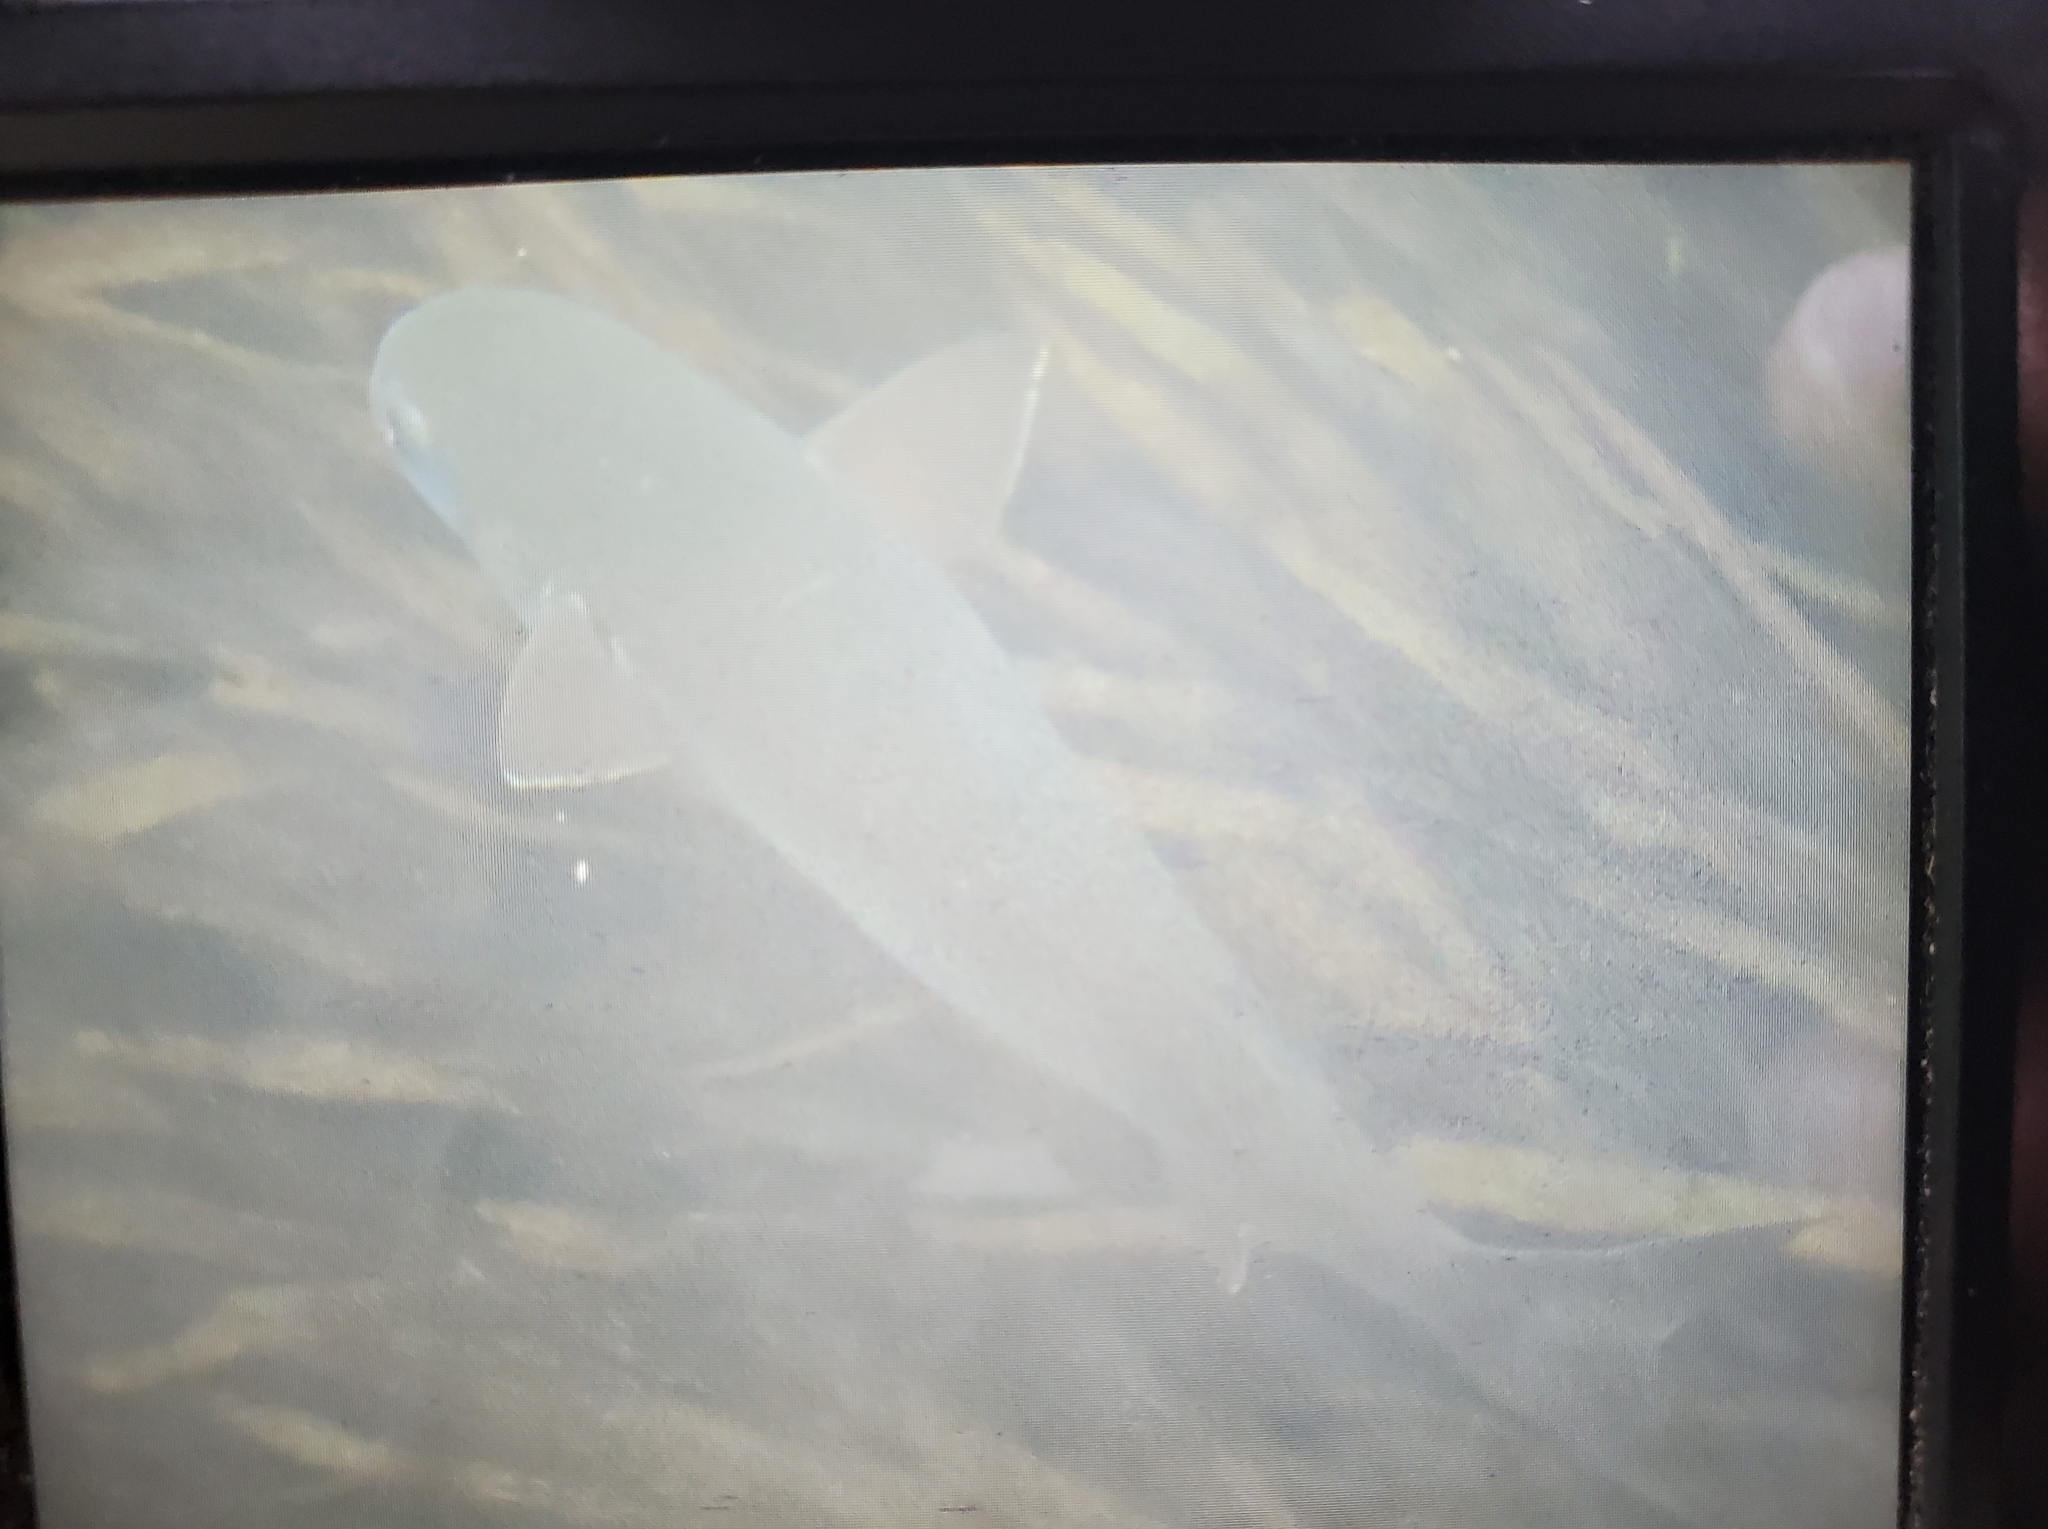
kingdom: Animalia
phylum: Chordata
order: Mugiliformes
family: Mugilidae
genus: Mugil
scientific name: Mugil cephalus
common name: Grey mullet
